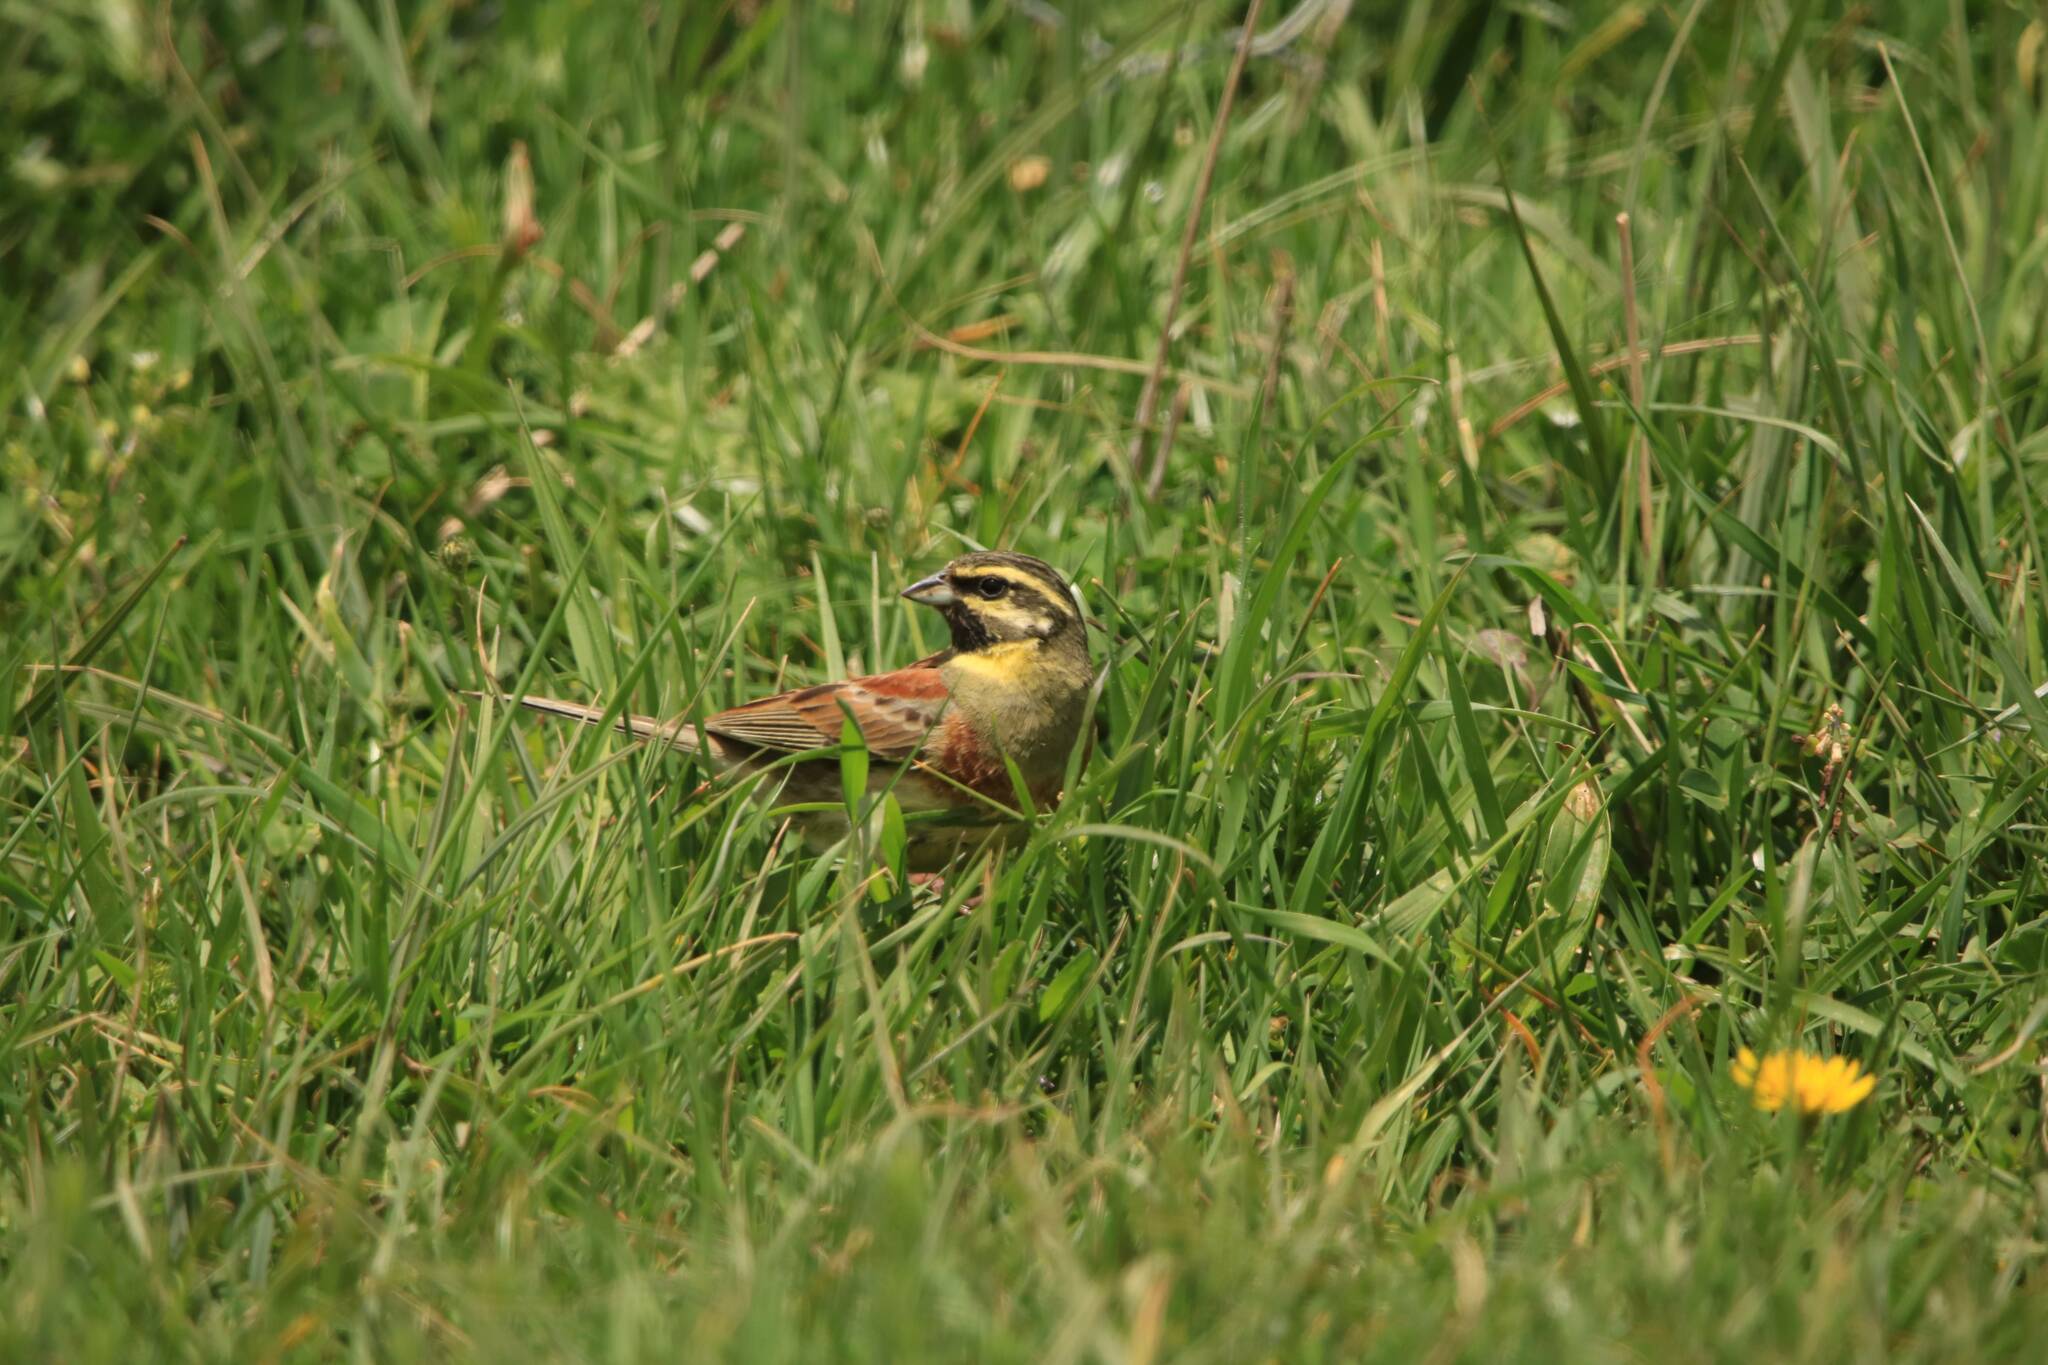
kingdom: Animalia
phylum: Chordata
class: Aves
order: Passeriformes
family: Emberizidae
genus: Emberiza
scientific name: Emberiza cirlus
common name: Cirl bunting
